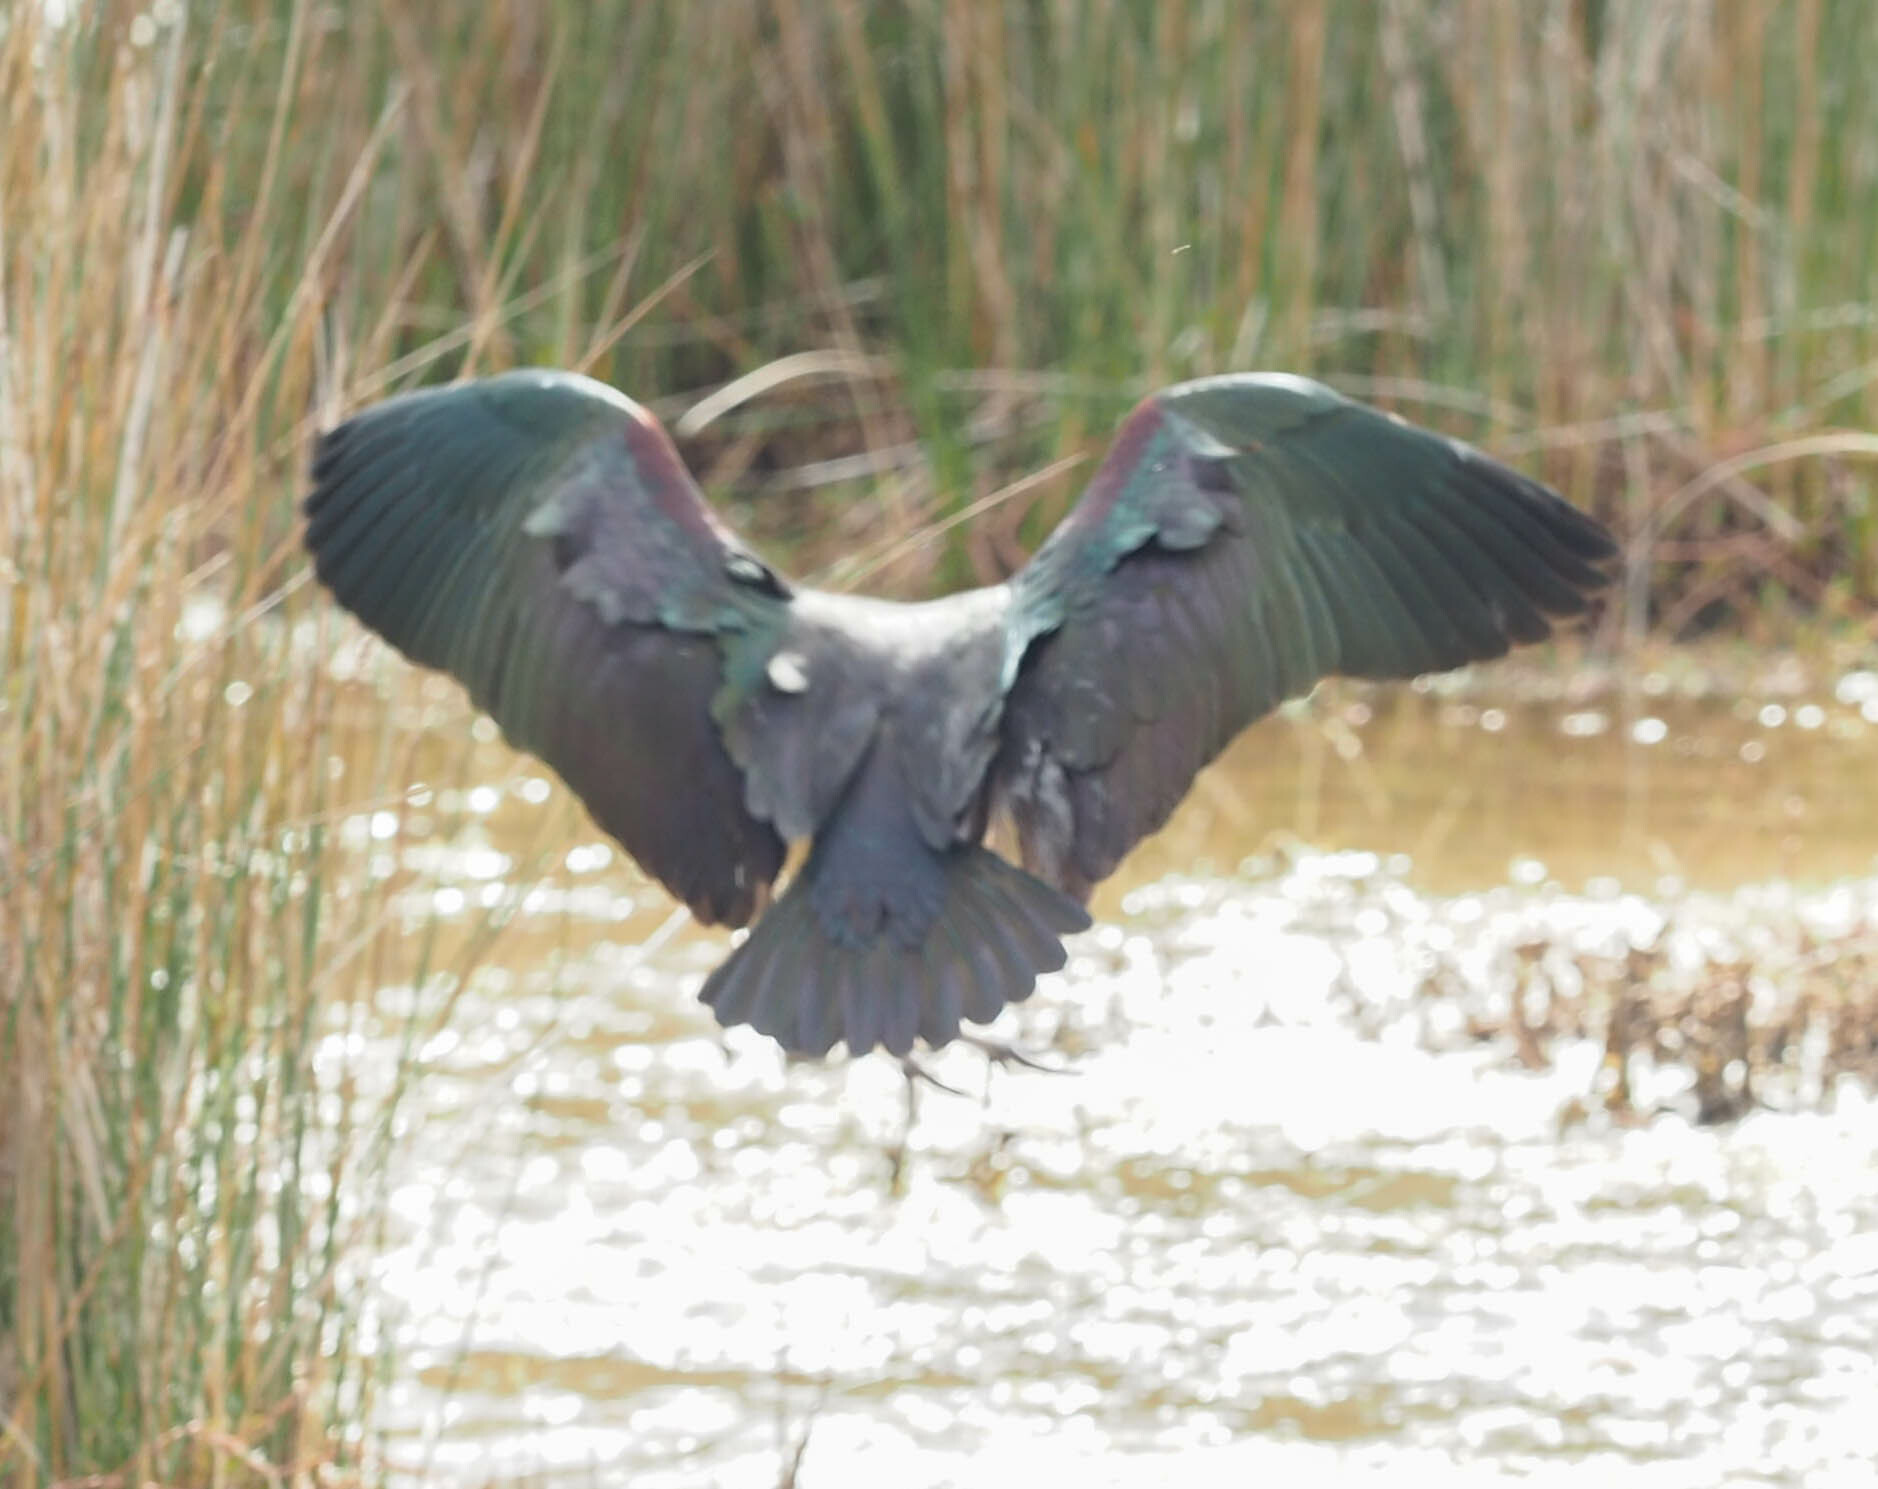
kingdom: Animalia
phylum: Chordata
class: Aves
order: Pelecaniformes
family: Threskiornithidae
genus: Plegadis
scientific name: Plegadis falcinellus
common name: Glossy ibis
